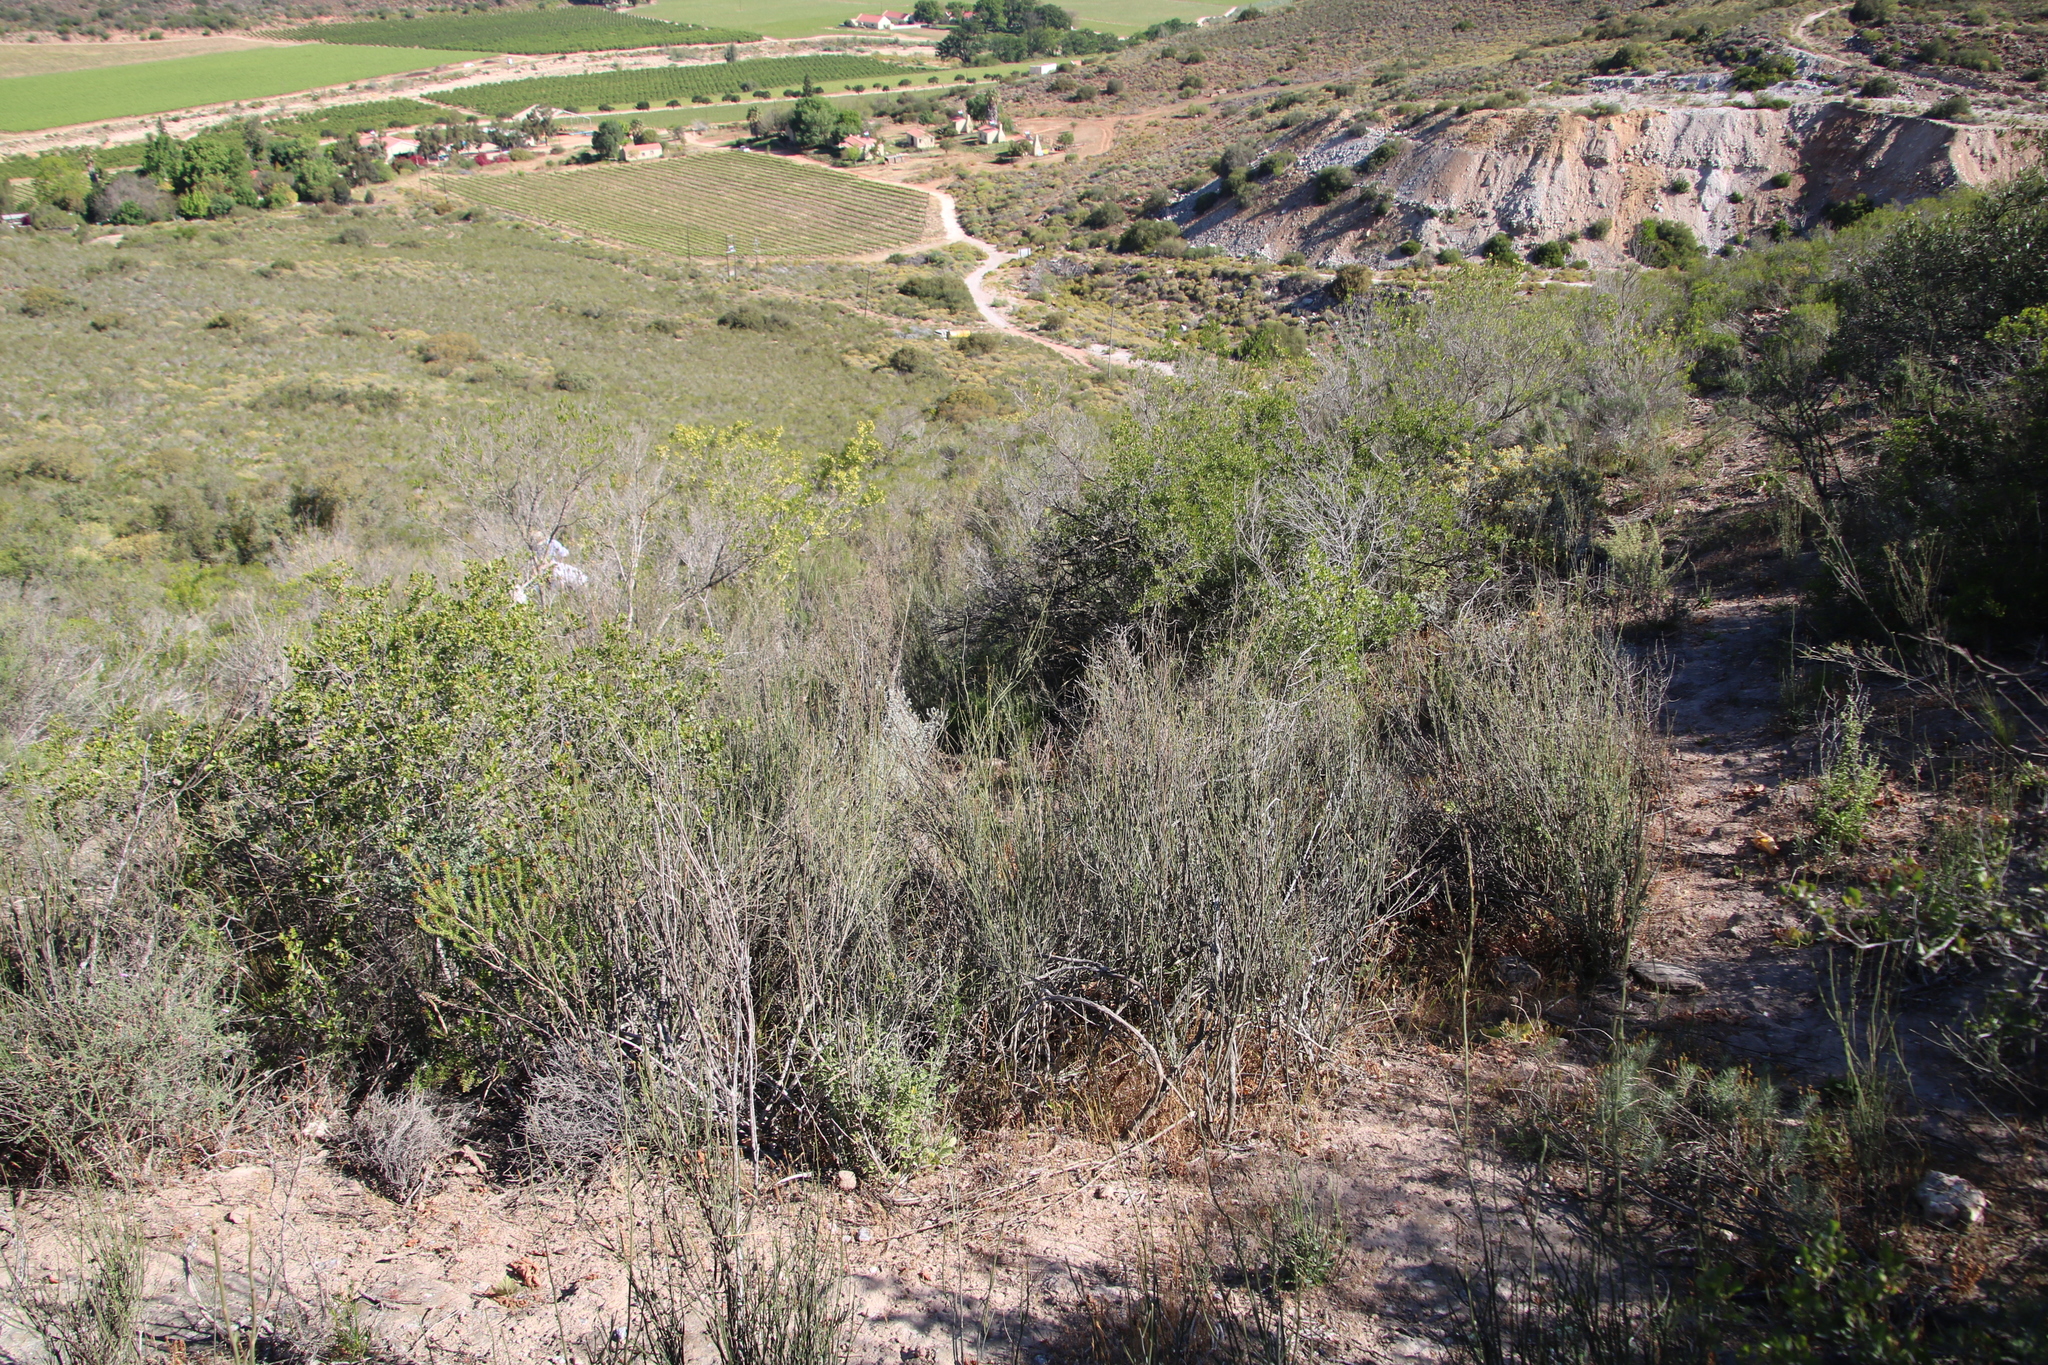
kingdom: Plantae
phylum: Tracheophyta
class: Magnoliopsida
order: Solanales
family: Montiniaceae
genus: Montinia
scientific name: Montinia caryophyllacea
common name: Wild clove-bush
